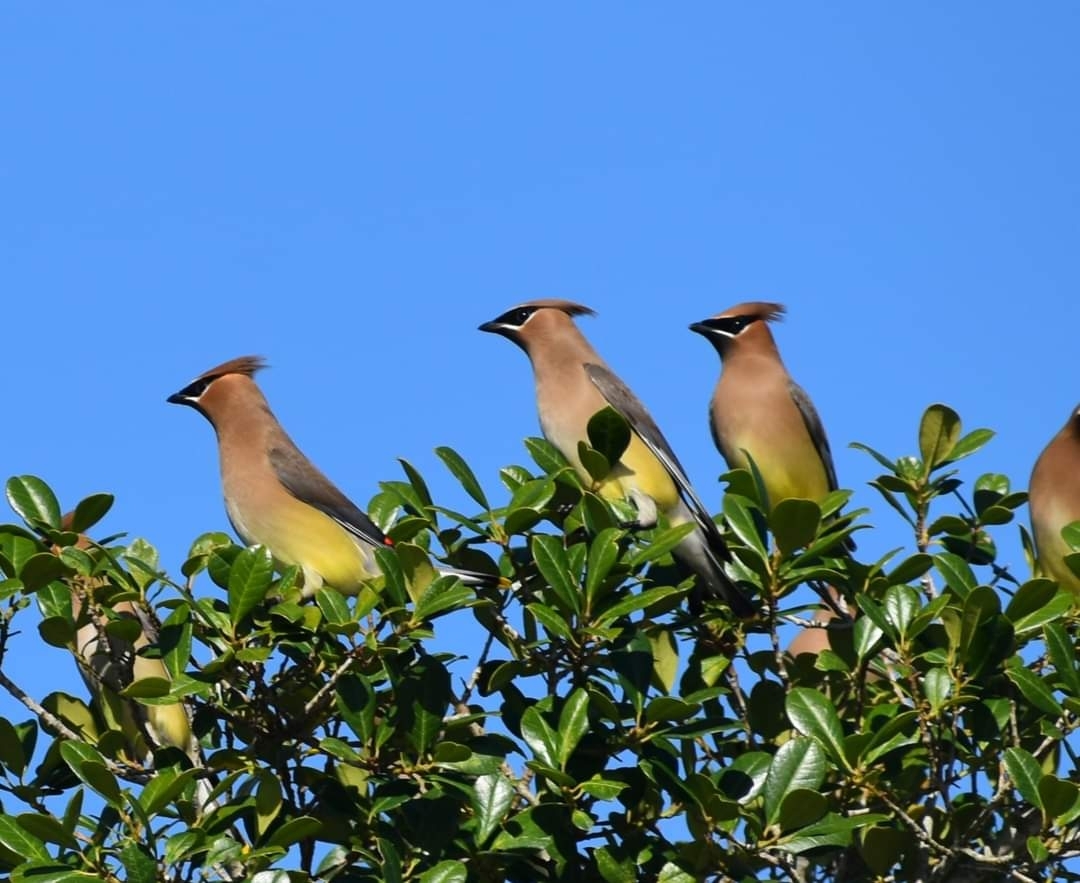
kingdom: Animalia
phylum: Chordata
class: Aves
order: Passeriformes
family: Bombycillidae
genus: Bombycilla
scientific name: Bombycilla cedrorum
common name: Cedar waxwing
